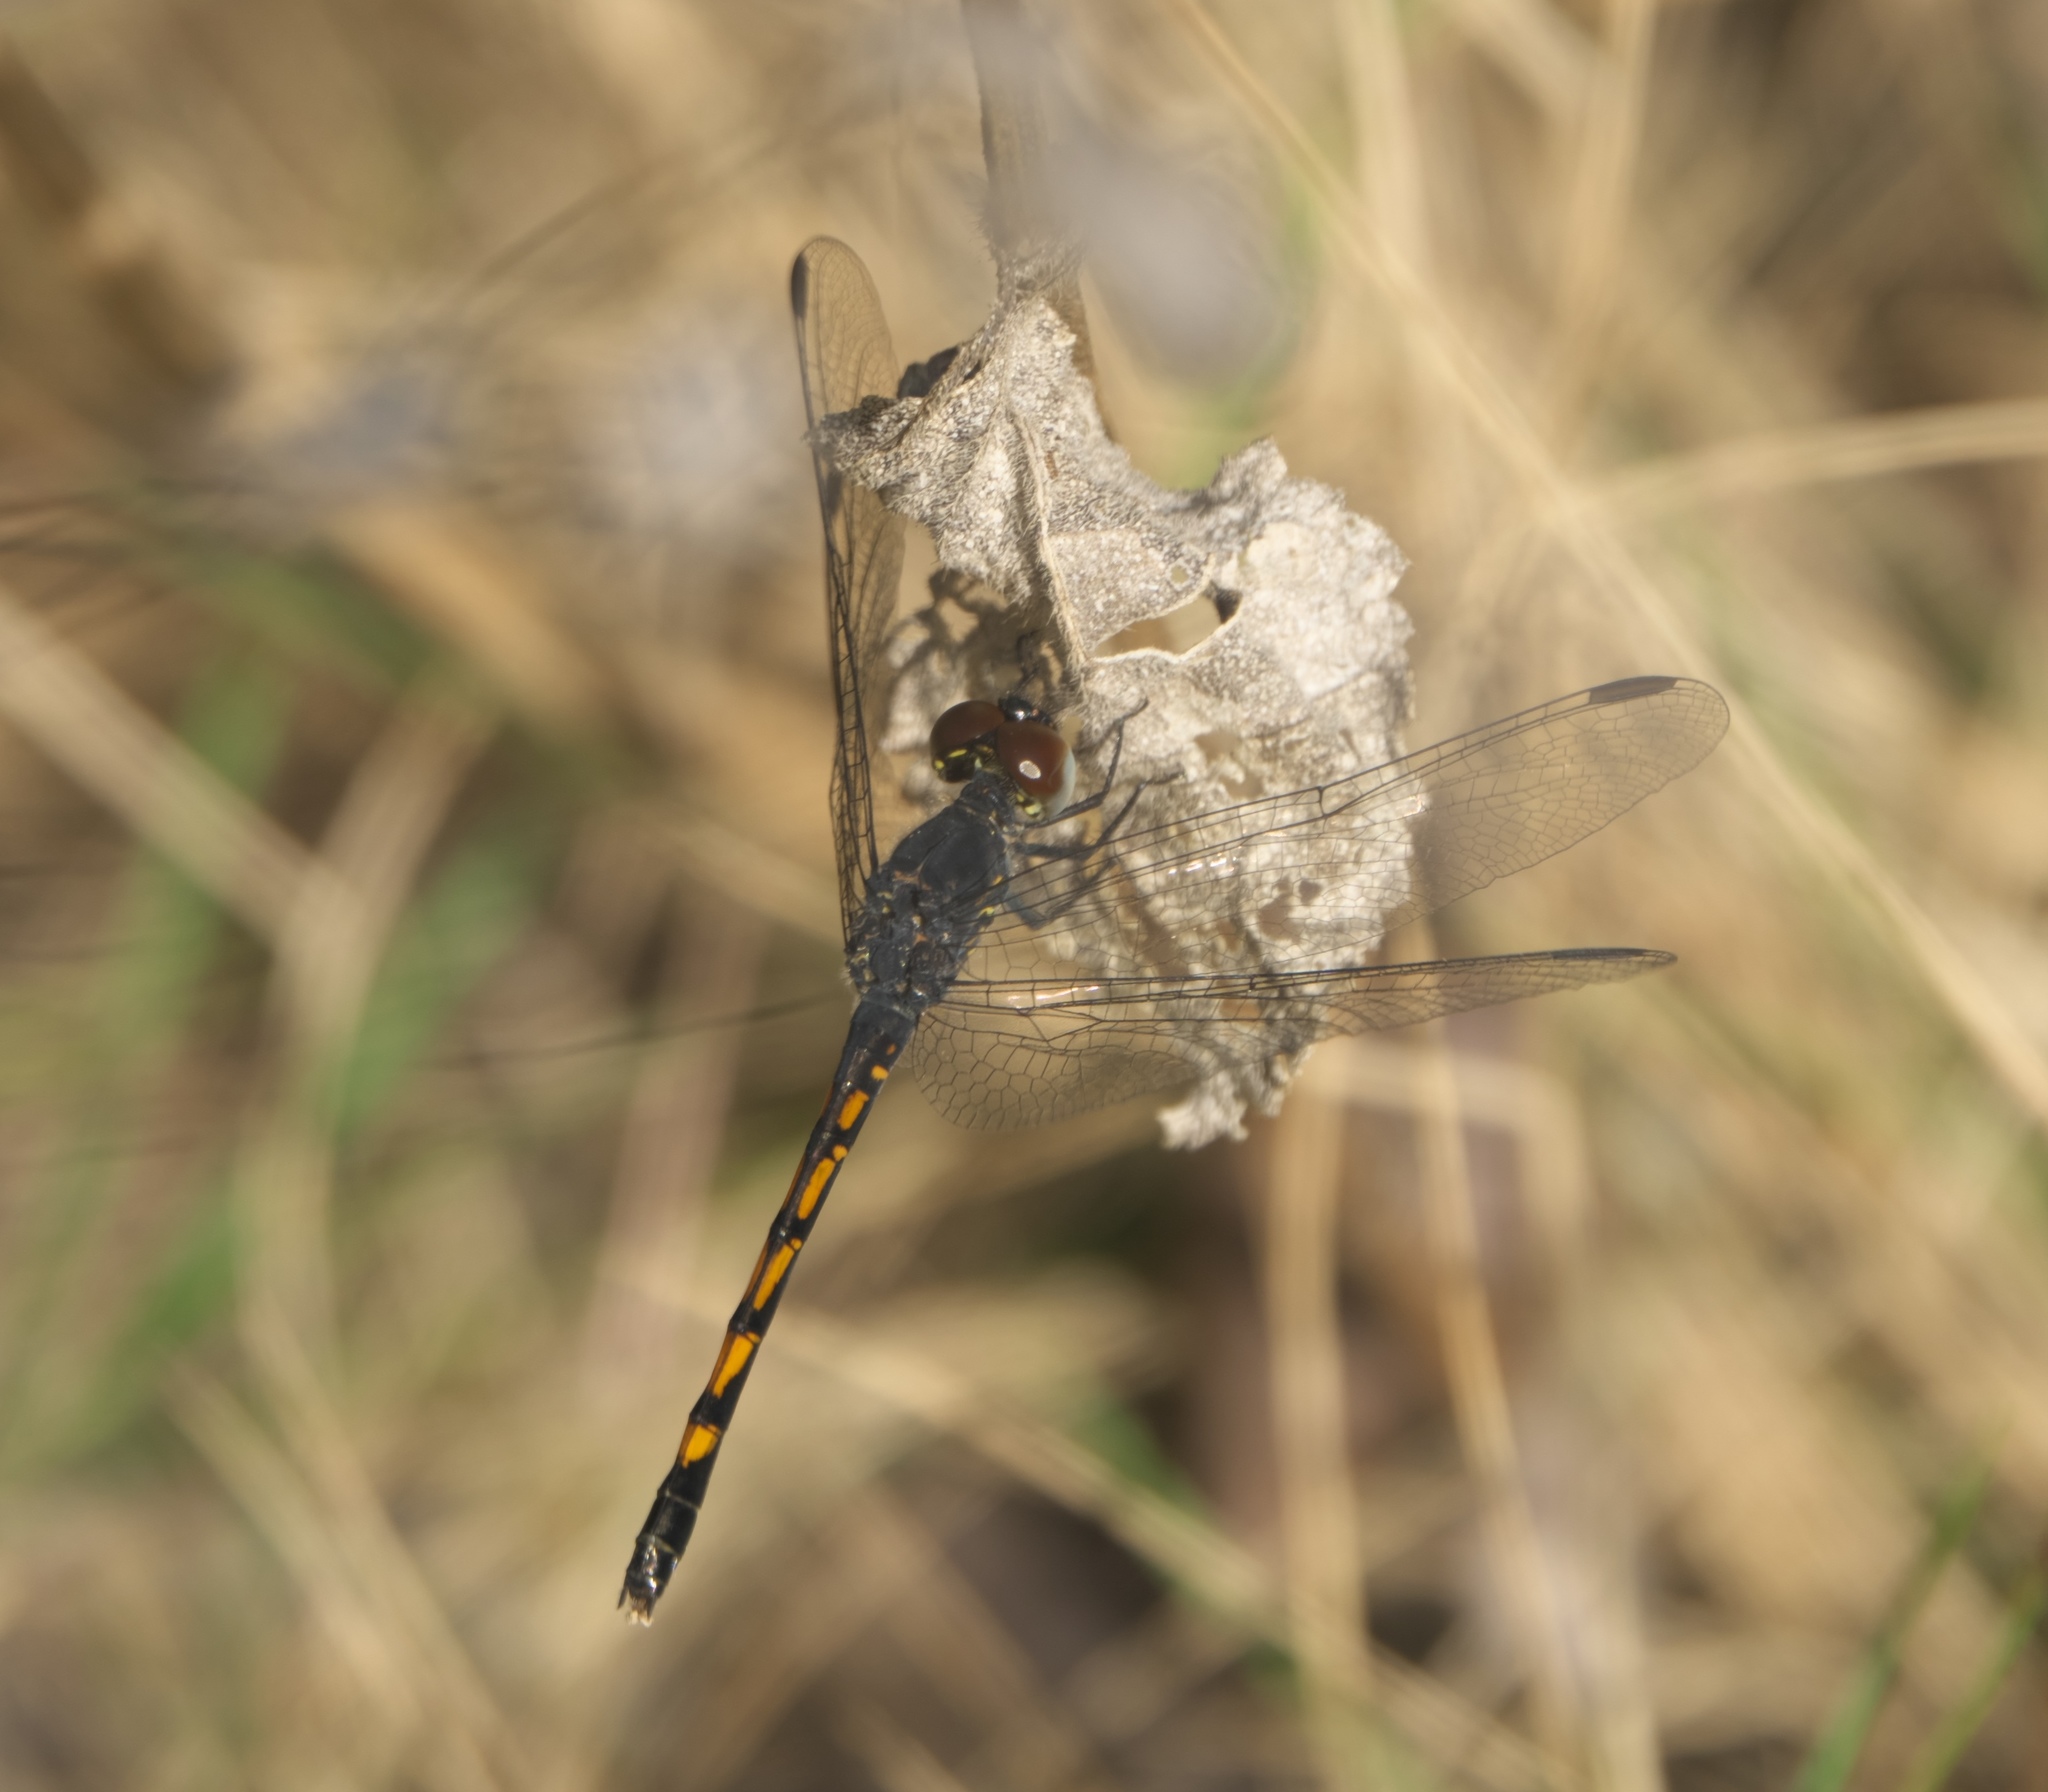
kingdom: Animalia
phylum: Arthropoda
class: Insecta
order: Odonata
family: Libellulidae
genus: Erythrodiplax
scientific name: Erythrodiplax berenice
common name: Seaside dragonlet
